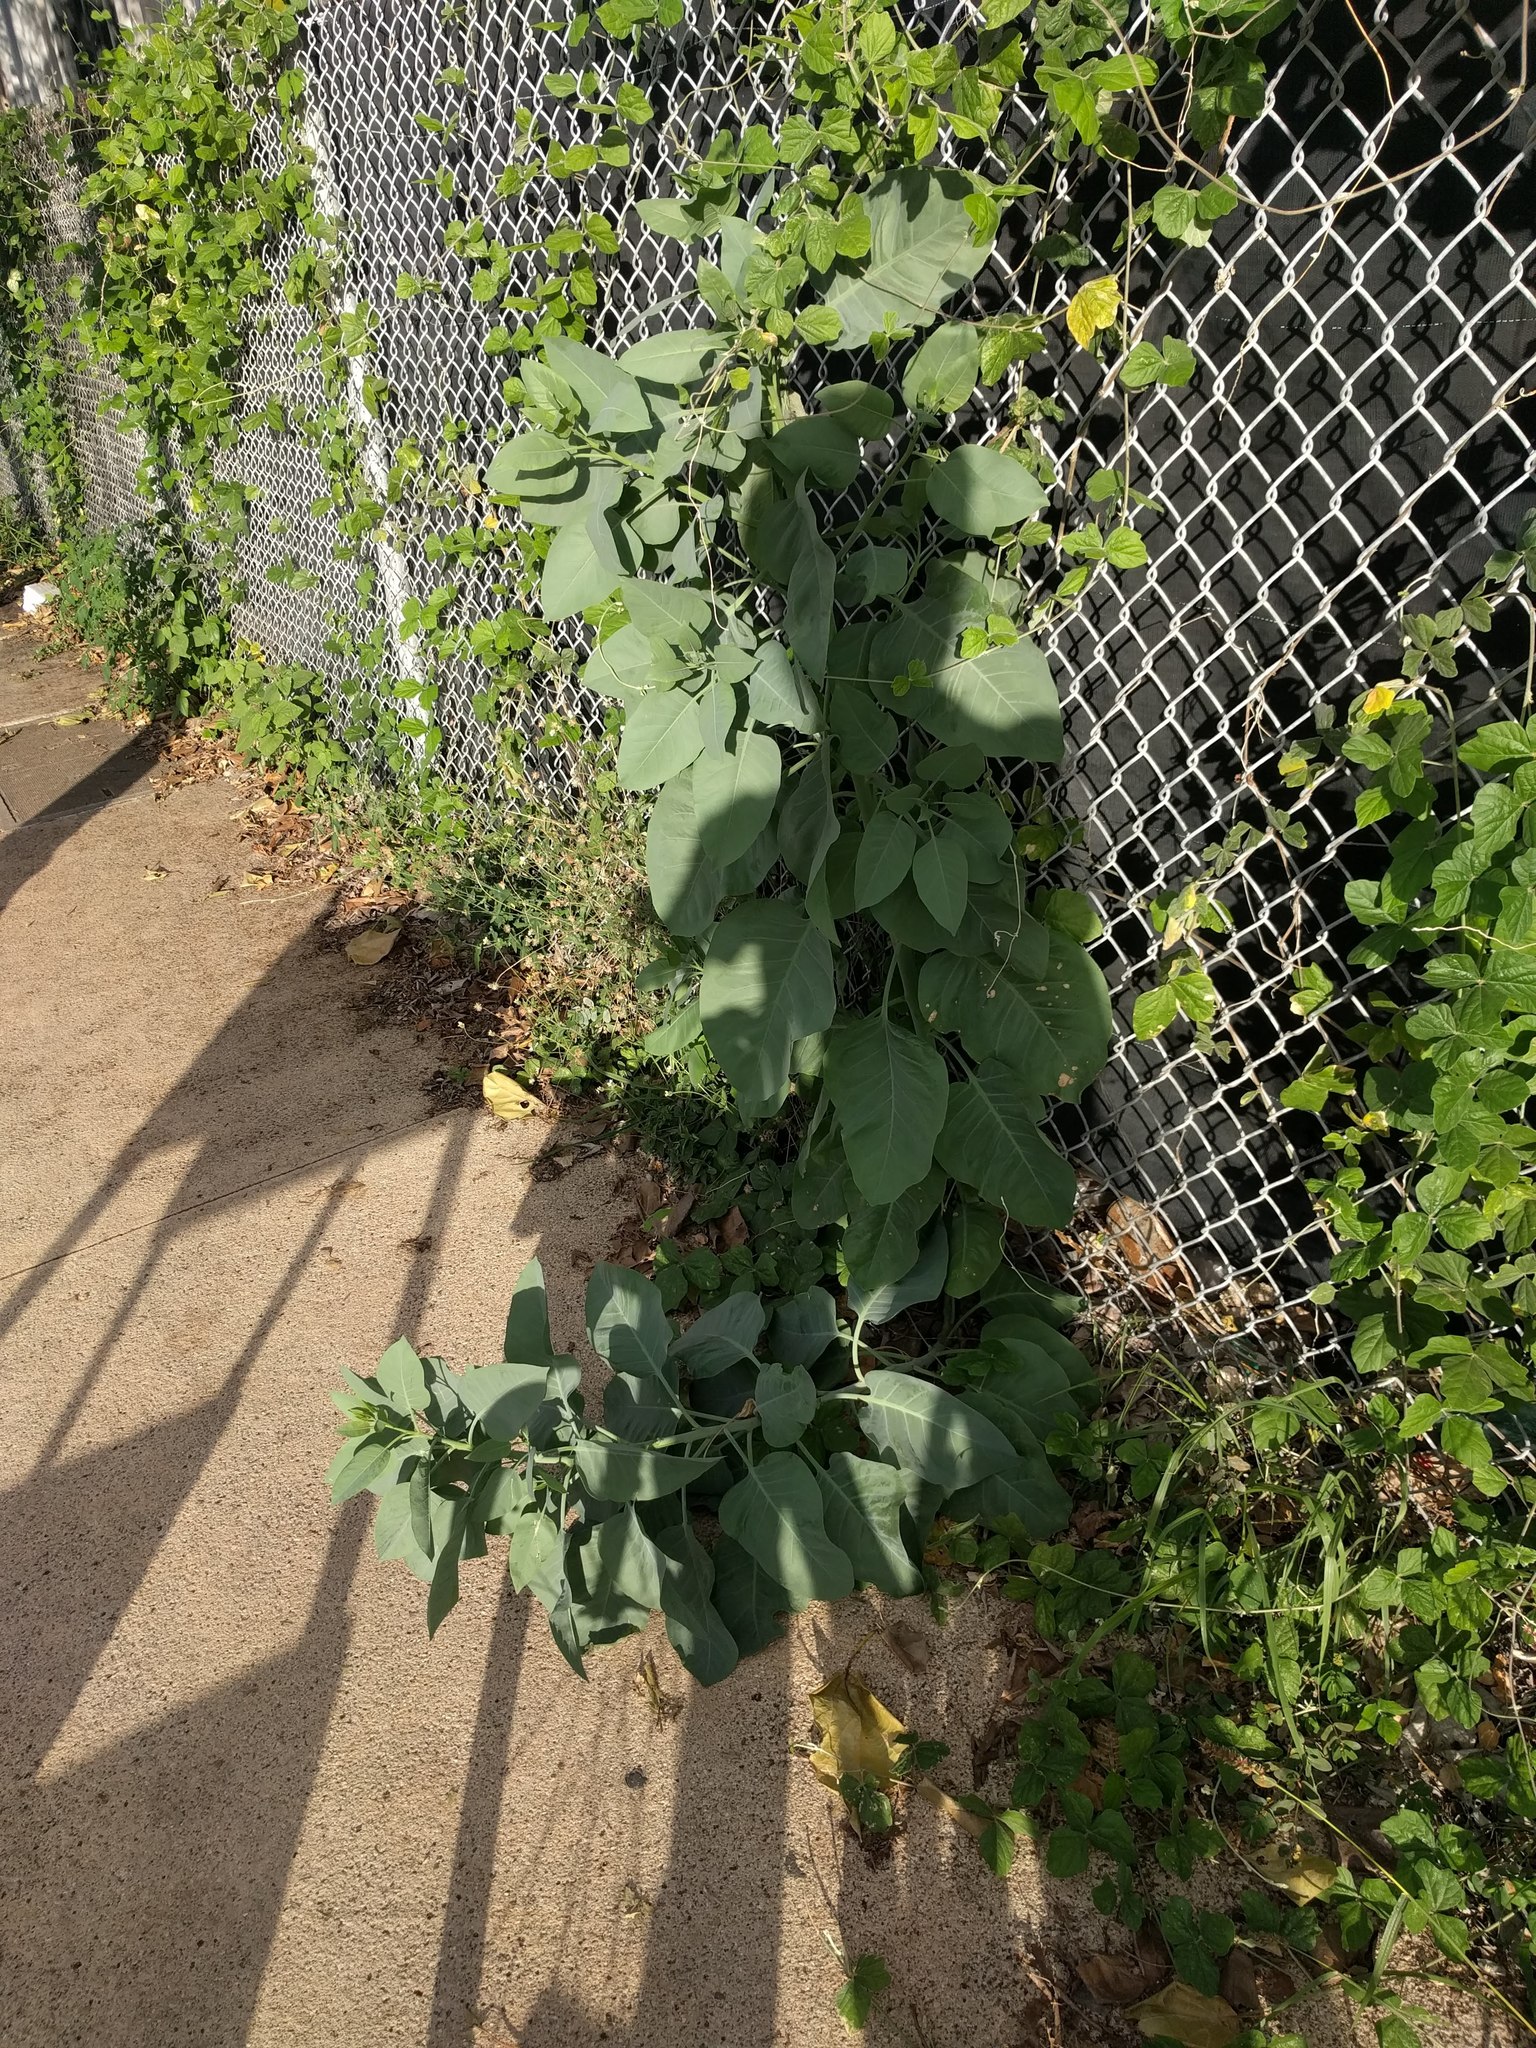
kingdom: Plantae
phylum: Tracheophyta
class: Magnoliopsida
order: Solanales
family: Solanaceae
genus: Nicotiana
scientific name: Nicotiana glauca
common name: Tree tobacco
